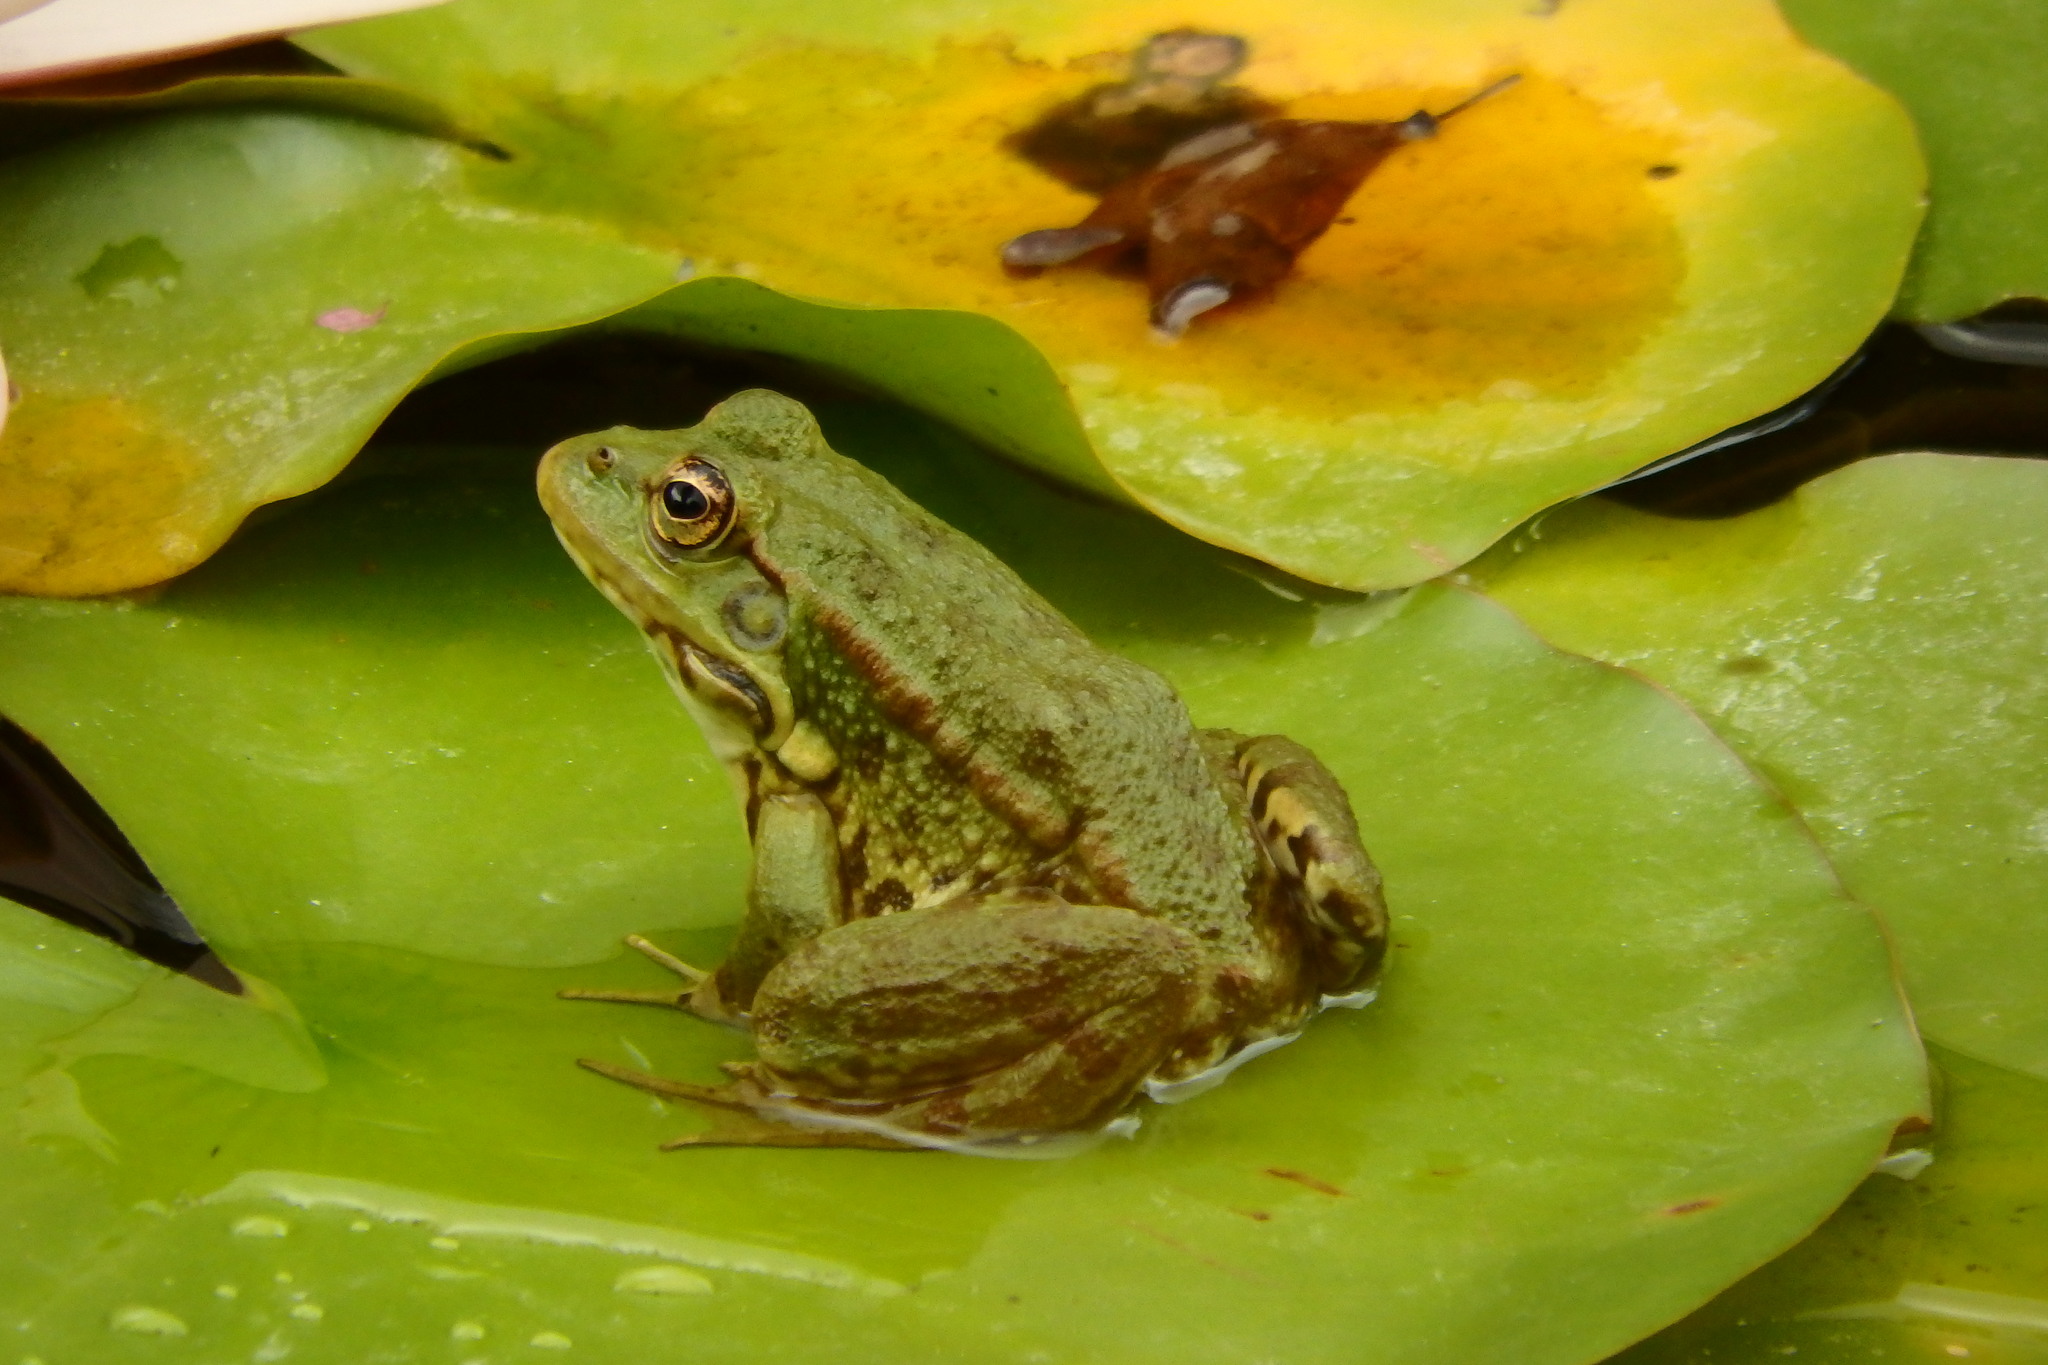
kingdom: Animalia
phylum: Chordata
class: Amphibia
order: Anura
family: Ranidae
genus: Pelophylax
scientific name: Pelophylax ridibundus
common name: Marsh frog
